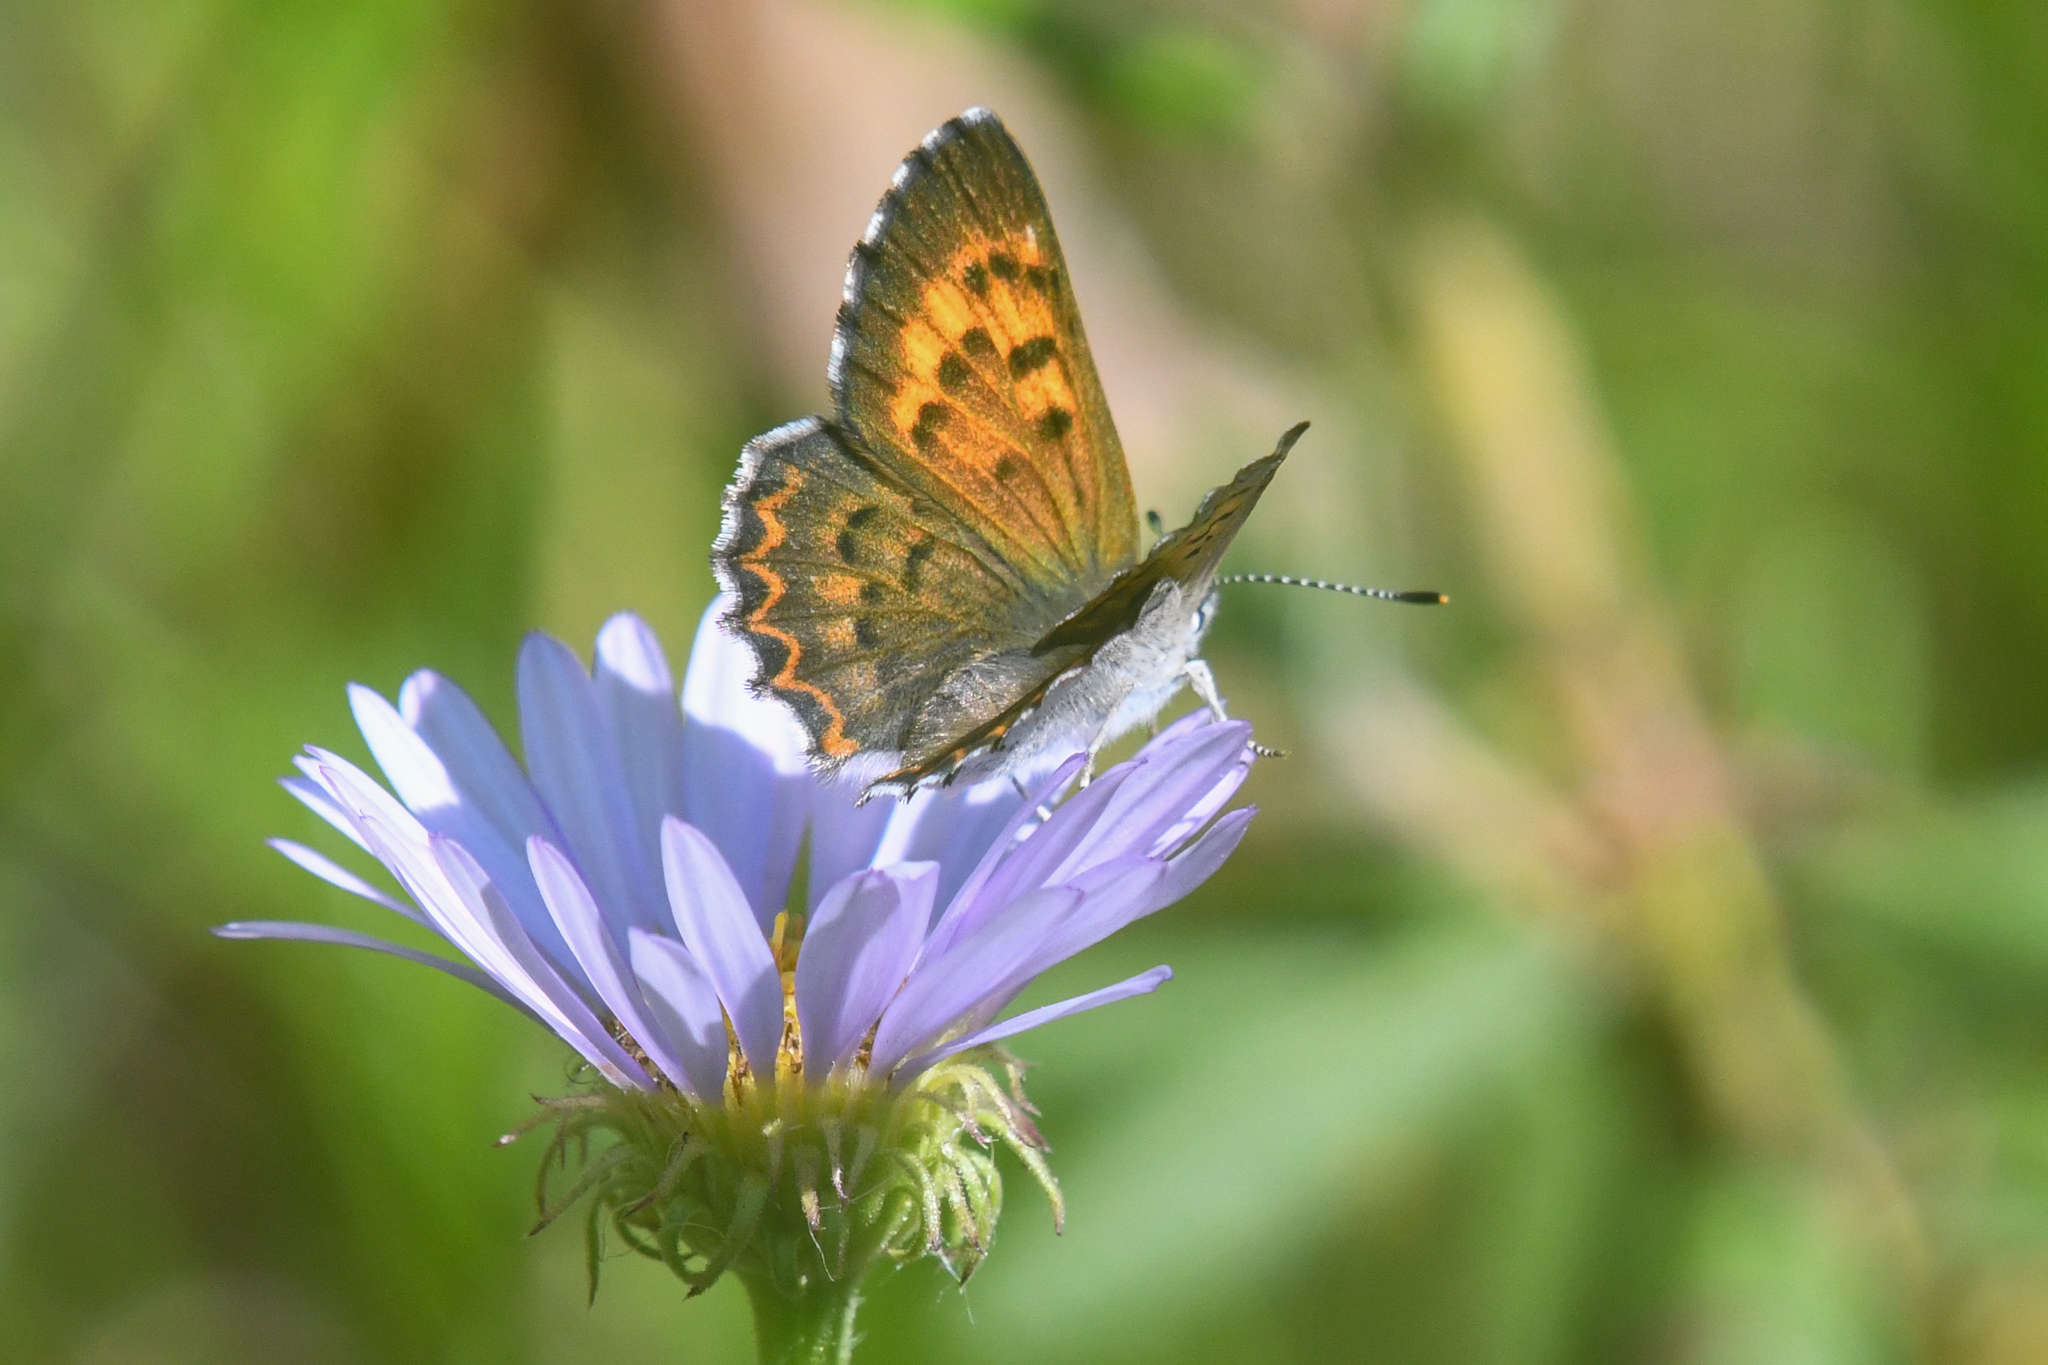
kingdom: Animalia
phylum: Arthropoda
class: Insecta
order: Lepidoptera
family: Lycaenidae
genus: Tharsalea
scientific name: Tharsalea mariposa
